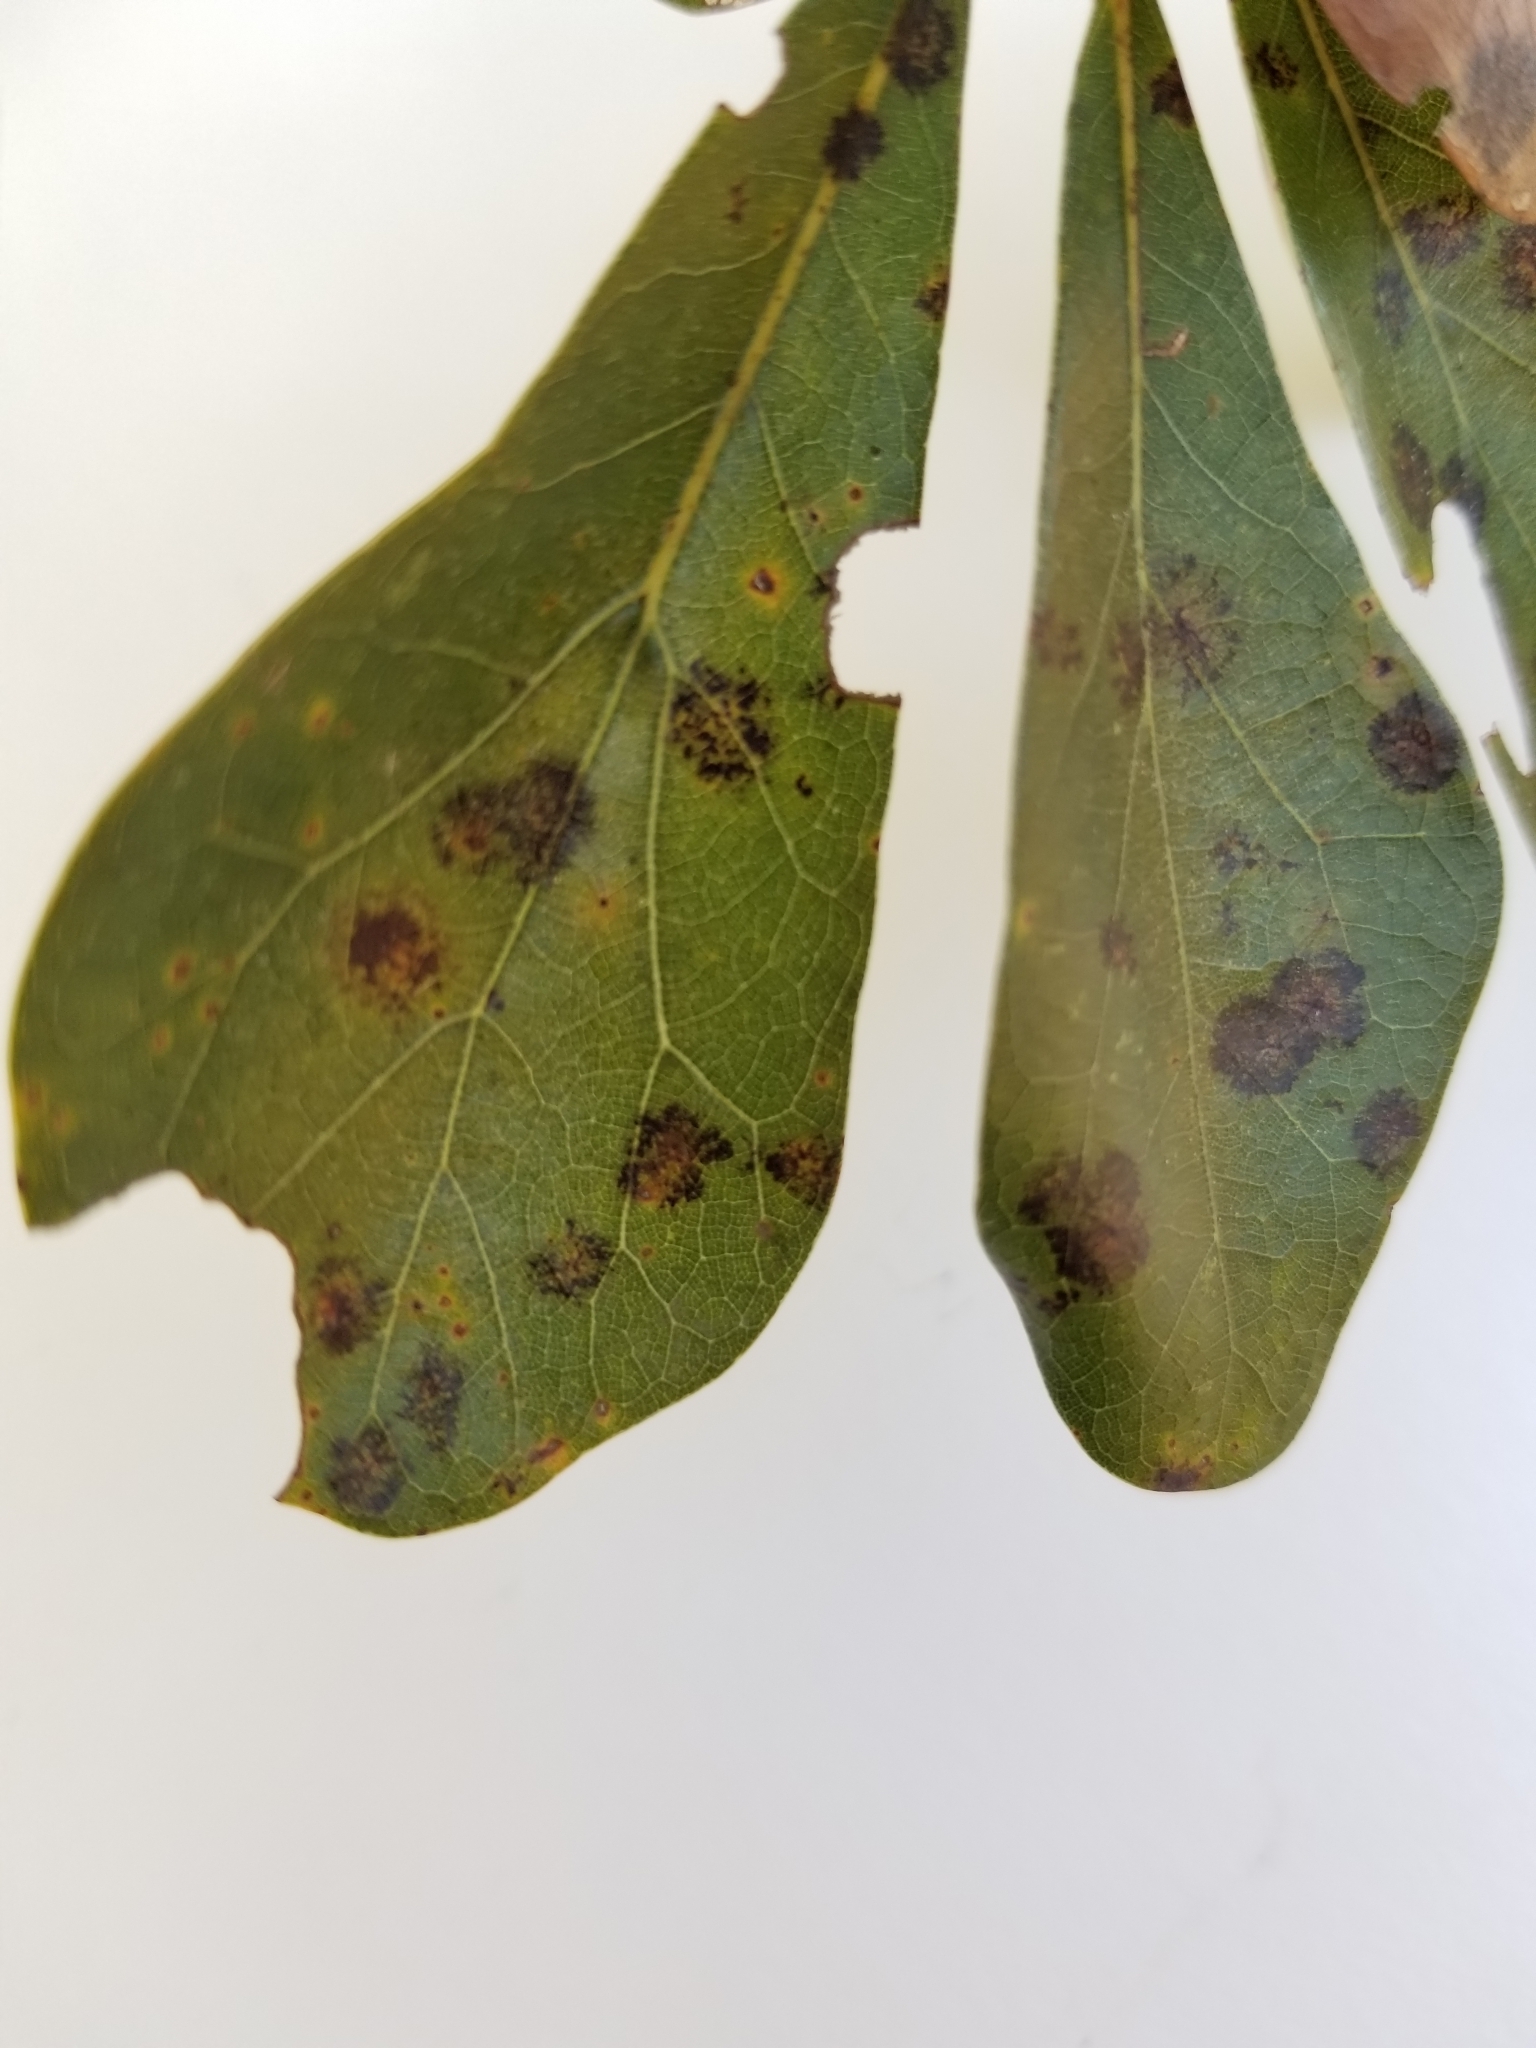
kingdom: Fungi
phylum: Ascomycota
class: Sordariomycetes
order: Diaporthales
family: Gnomoniaceae
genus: Apiognomonia
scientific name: Apiognomonia errabunda
